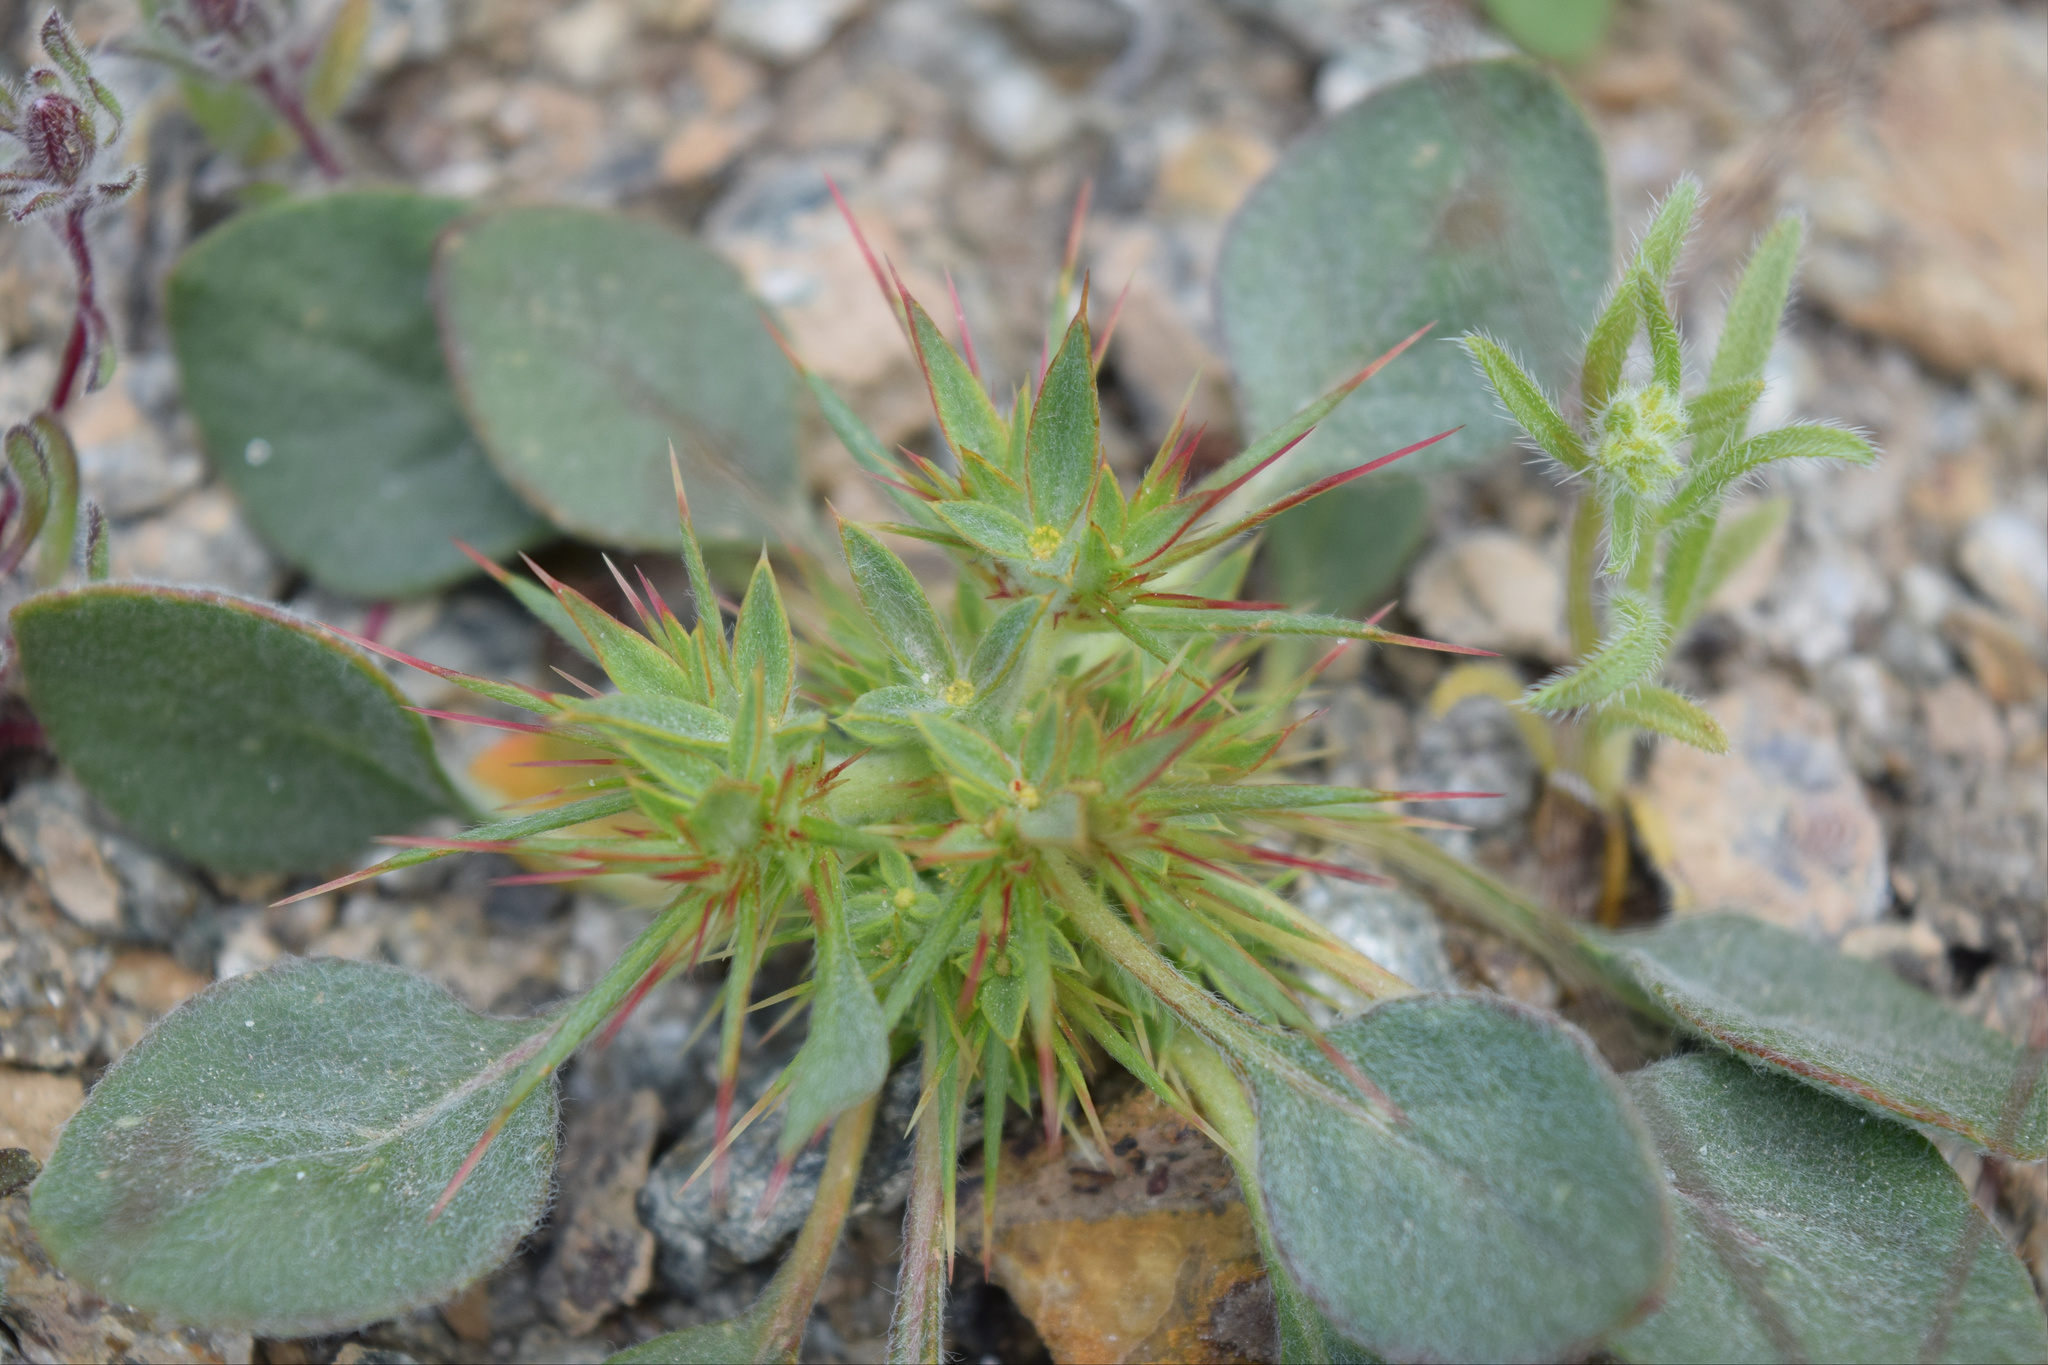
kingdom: Plantae
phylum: Tracheophyta
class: Magnoliopsida
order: Caryophyllales
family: Polygonaceae
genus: Chorizanthe
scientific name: Chorizanthe rigida
